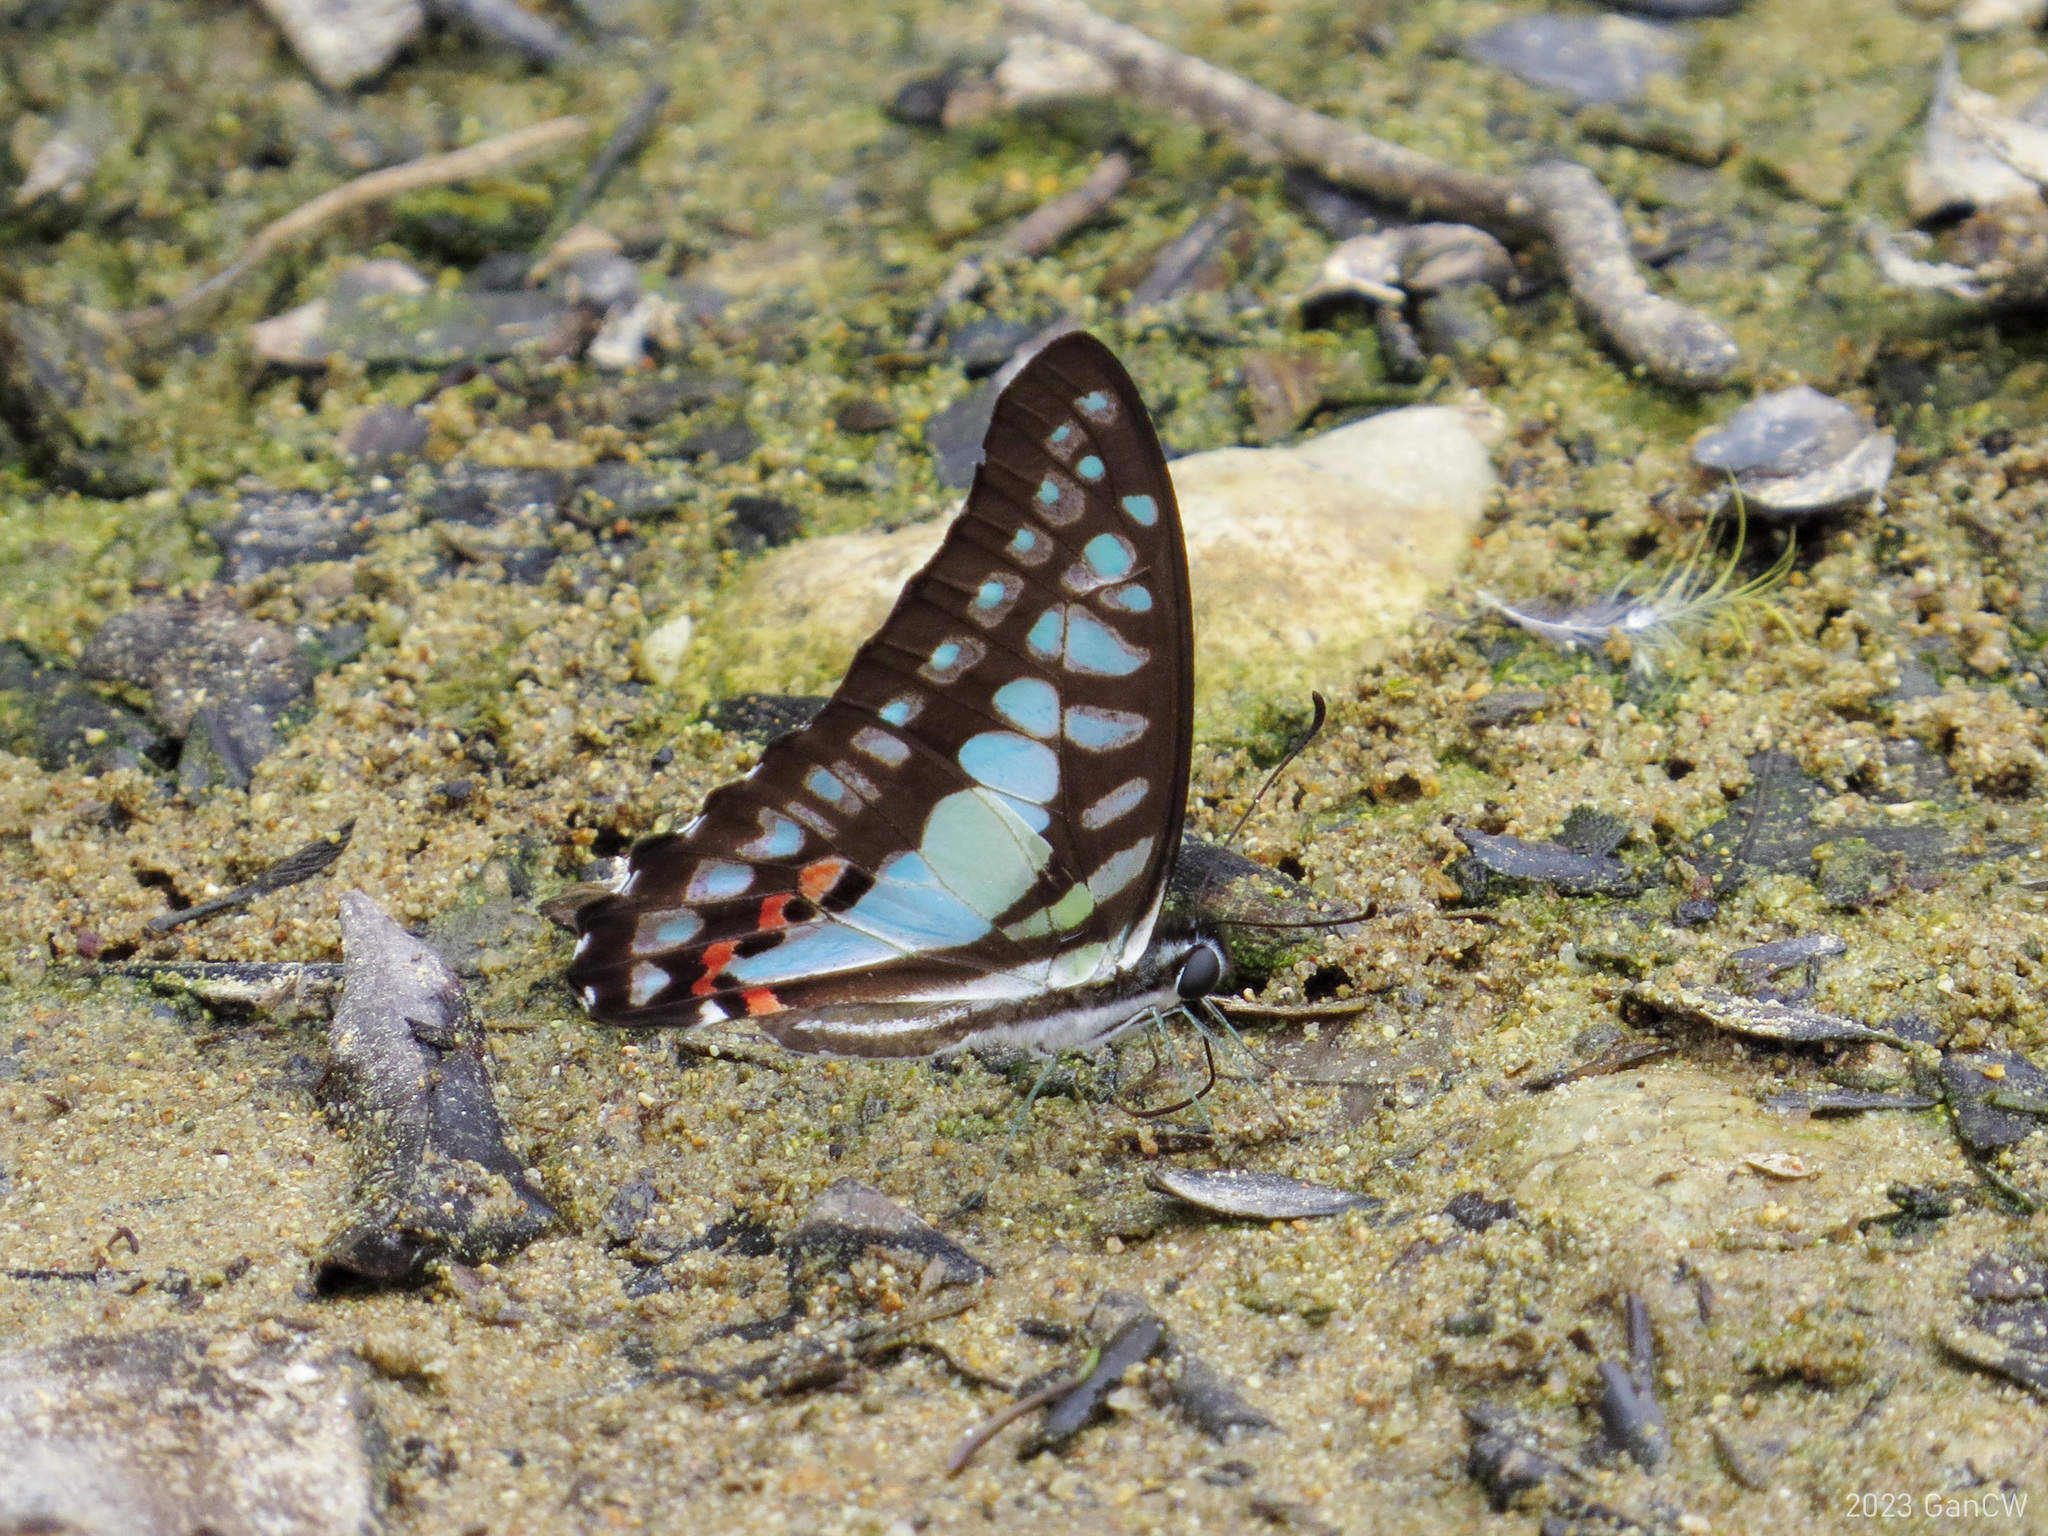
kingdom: Animalia
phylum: Arthropoda
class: Insecta
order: Lepidoptera
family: Papilionidae
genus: Graphium
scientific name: Graphium evemon
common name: Lesser jay
